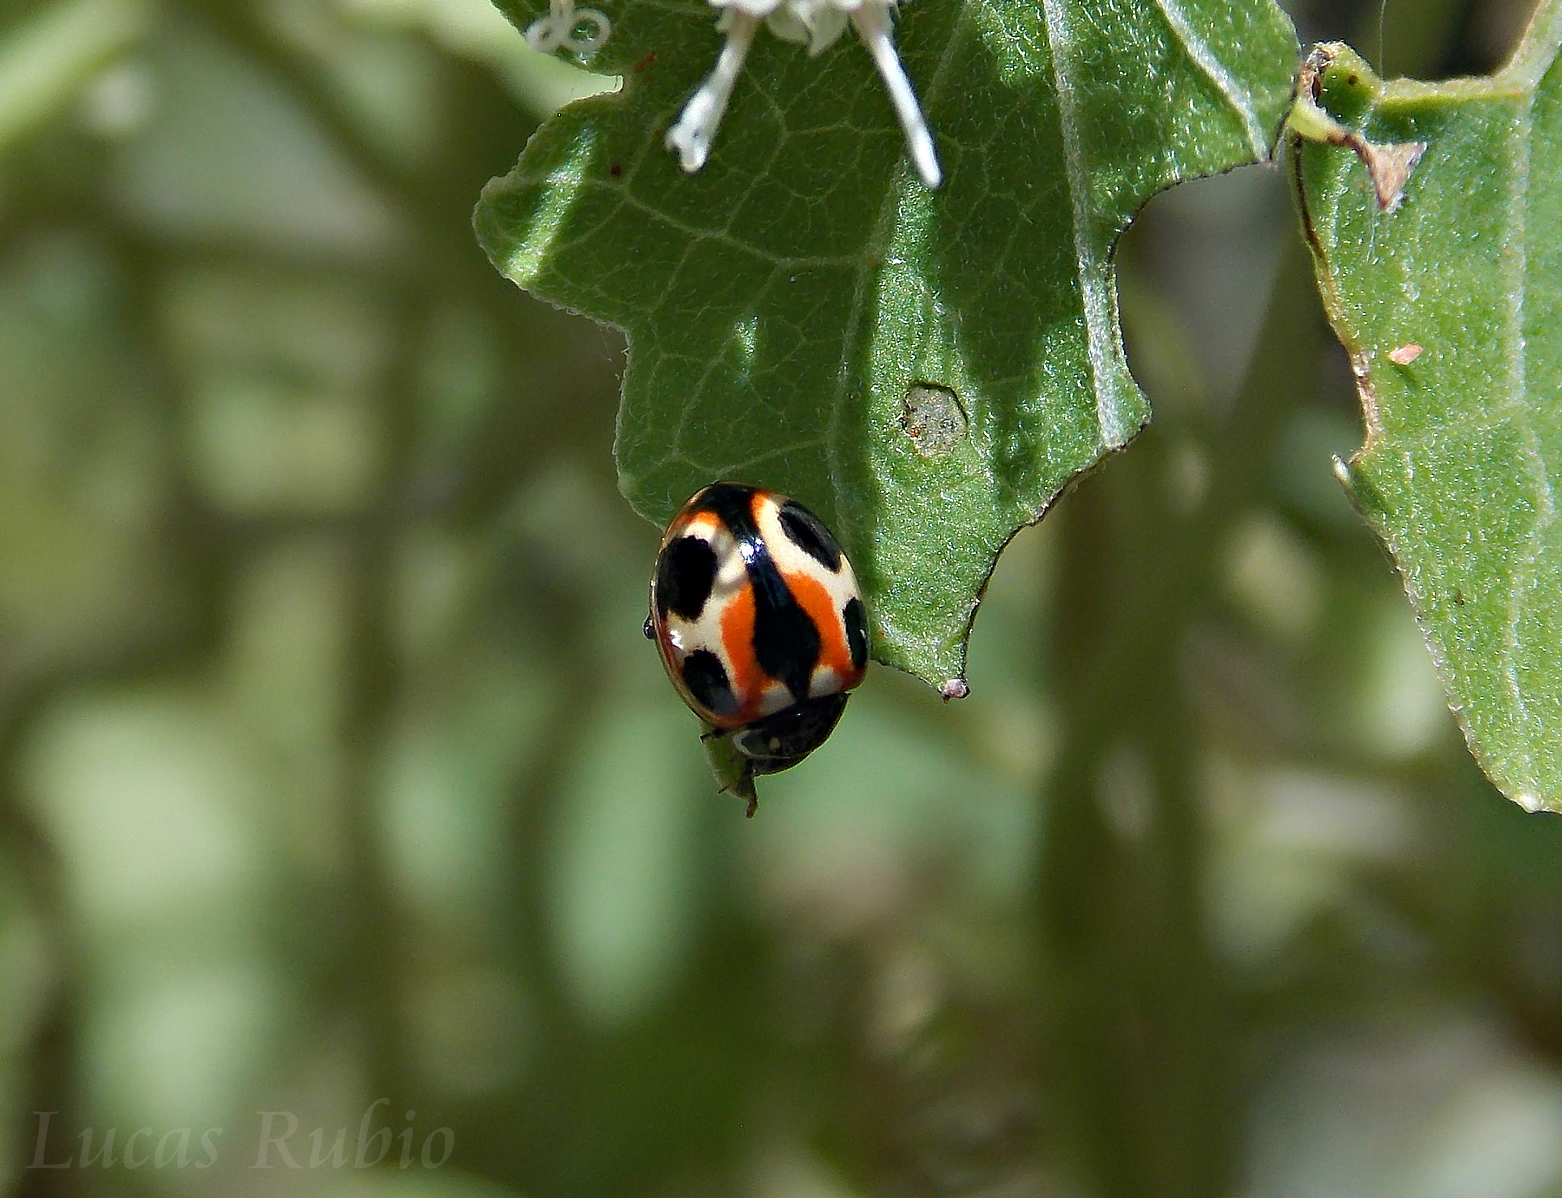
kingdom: Animalia
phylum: Arthropoda
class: Insecta
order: Coleoptera
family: Coccinellidae
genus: Cycloneda
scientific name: Cycloneda ancoralis
